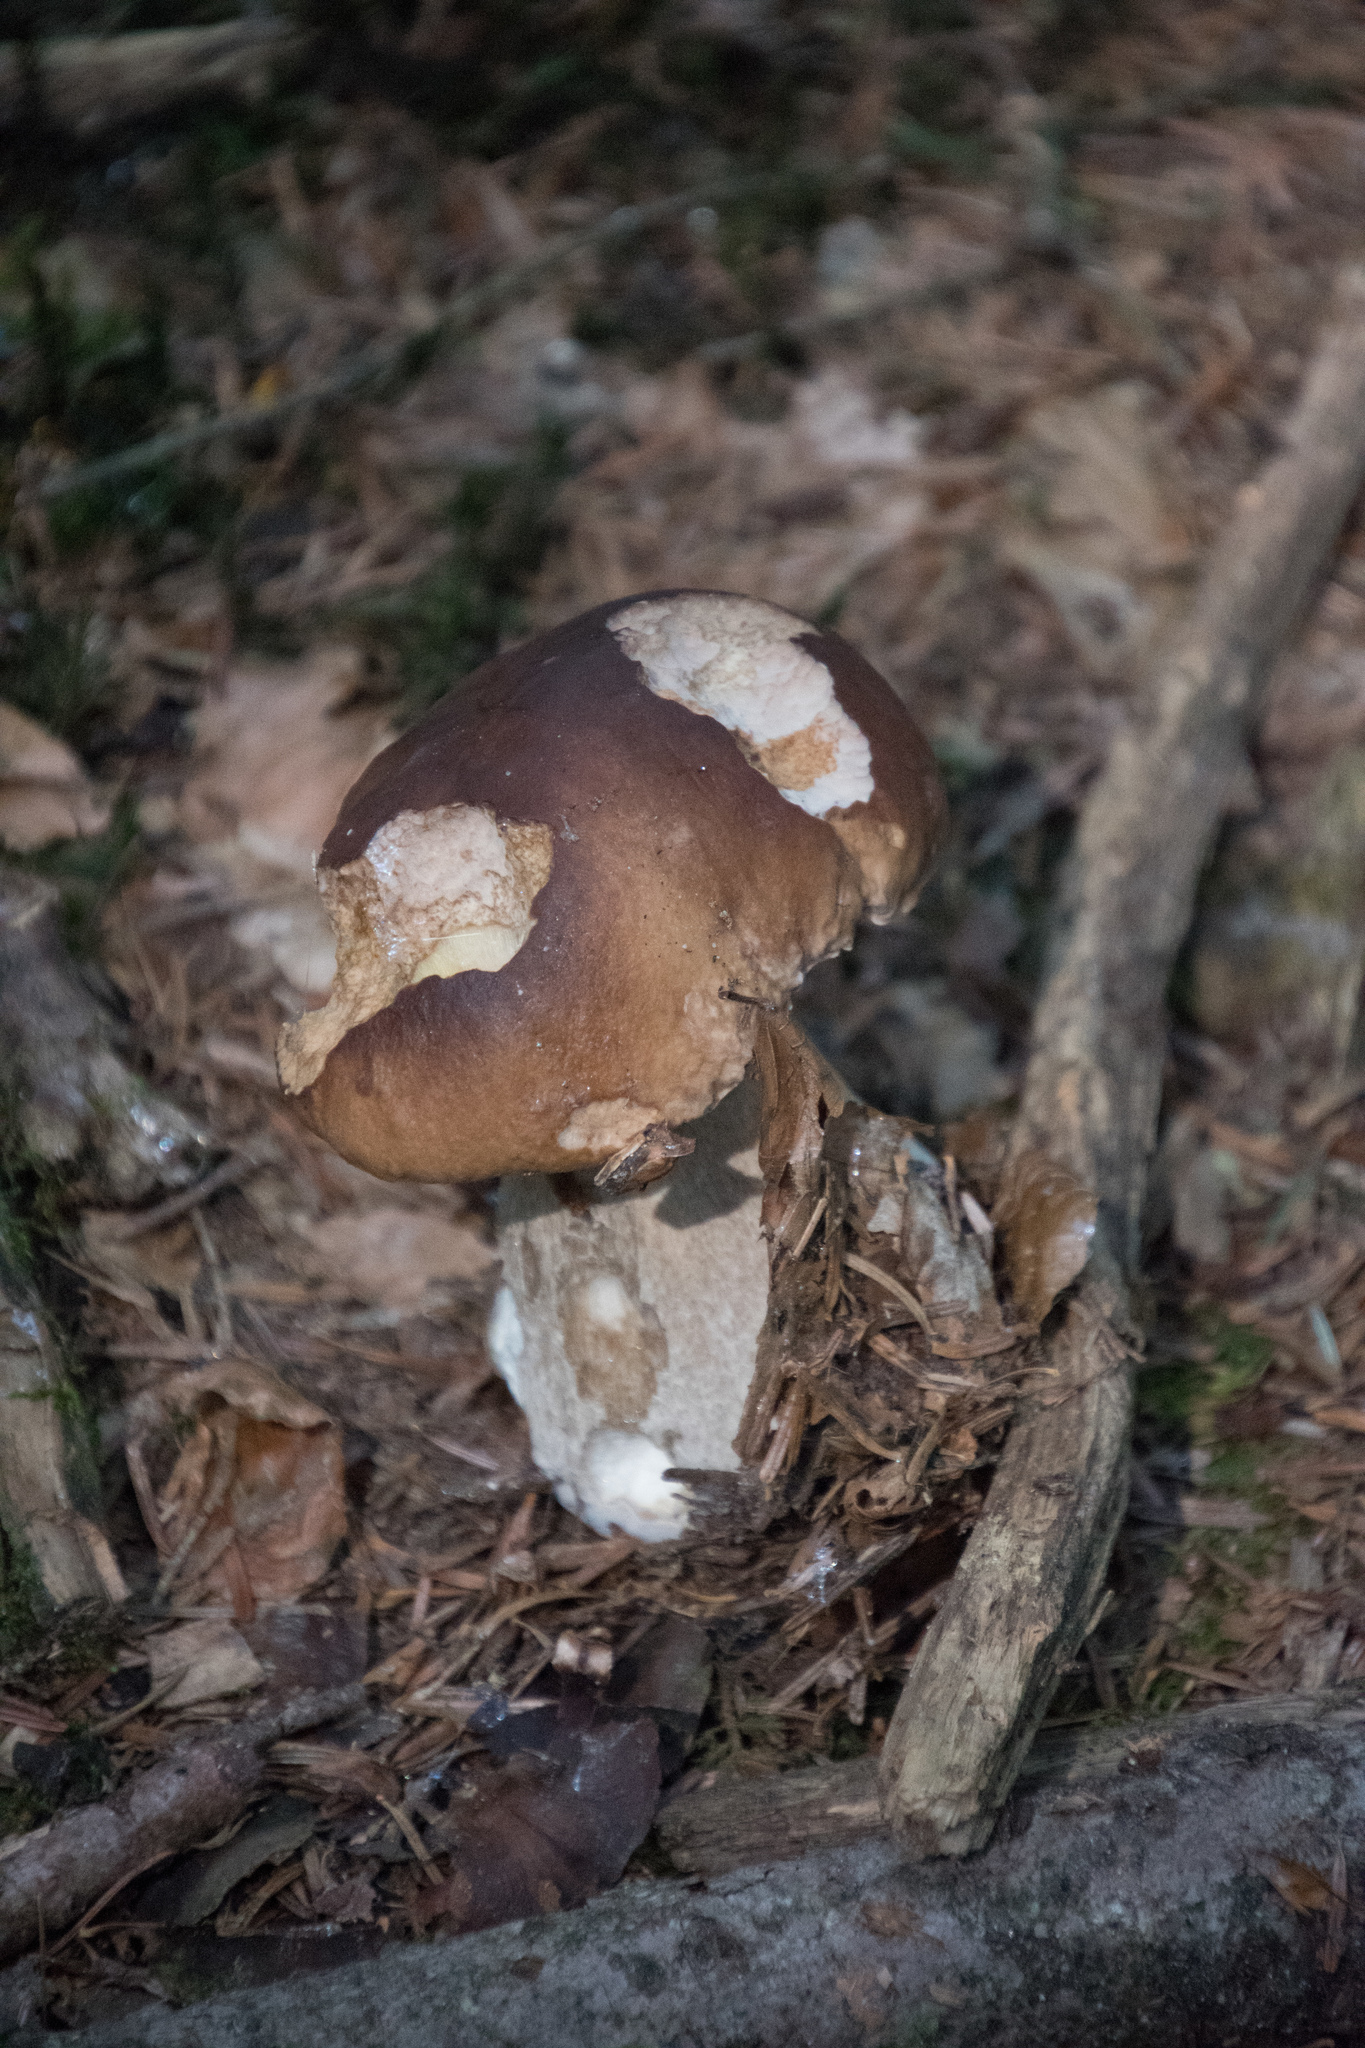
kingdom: Fungi
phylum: Basidiomycota
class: Agaricomycetes
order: Boletales
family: Boletaceae
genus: Boletus
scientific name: Boletus edulis
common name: Cep
